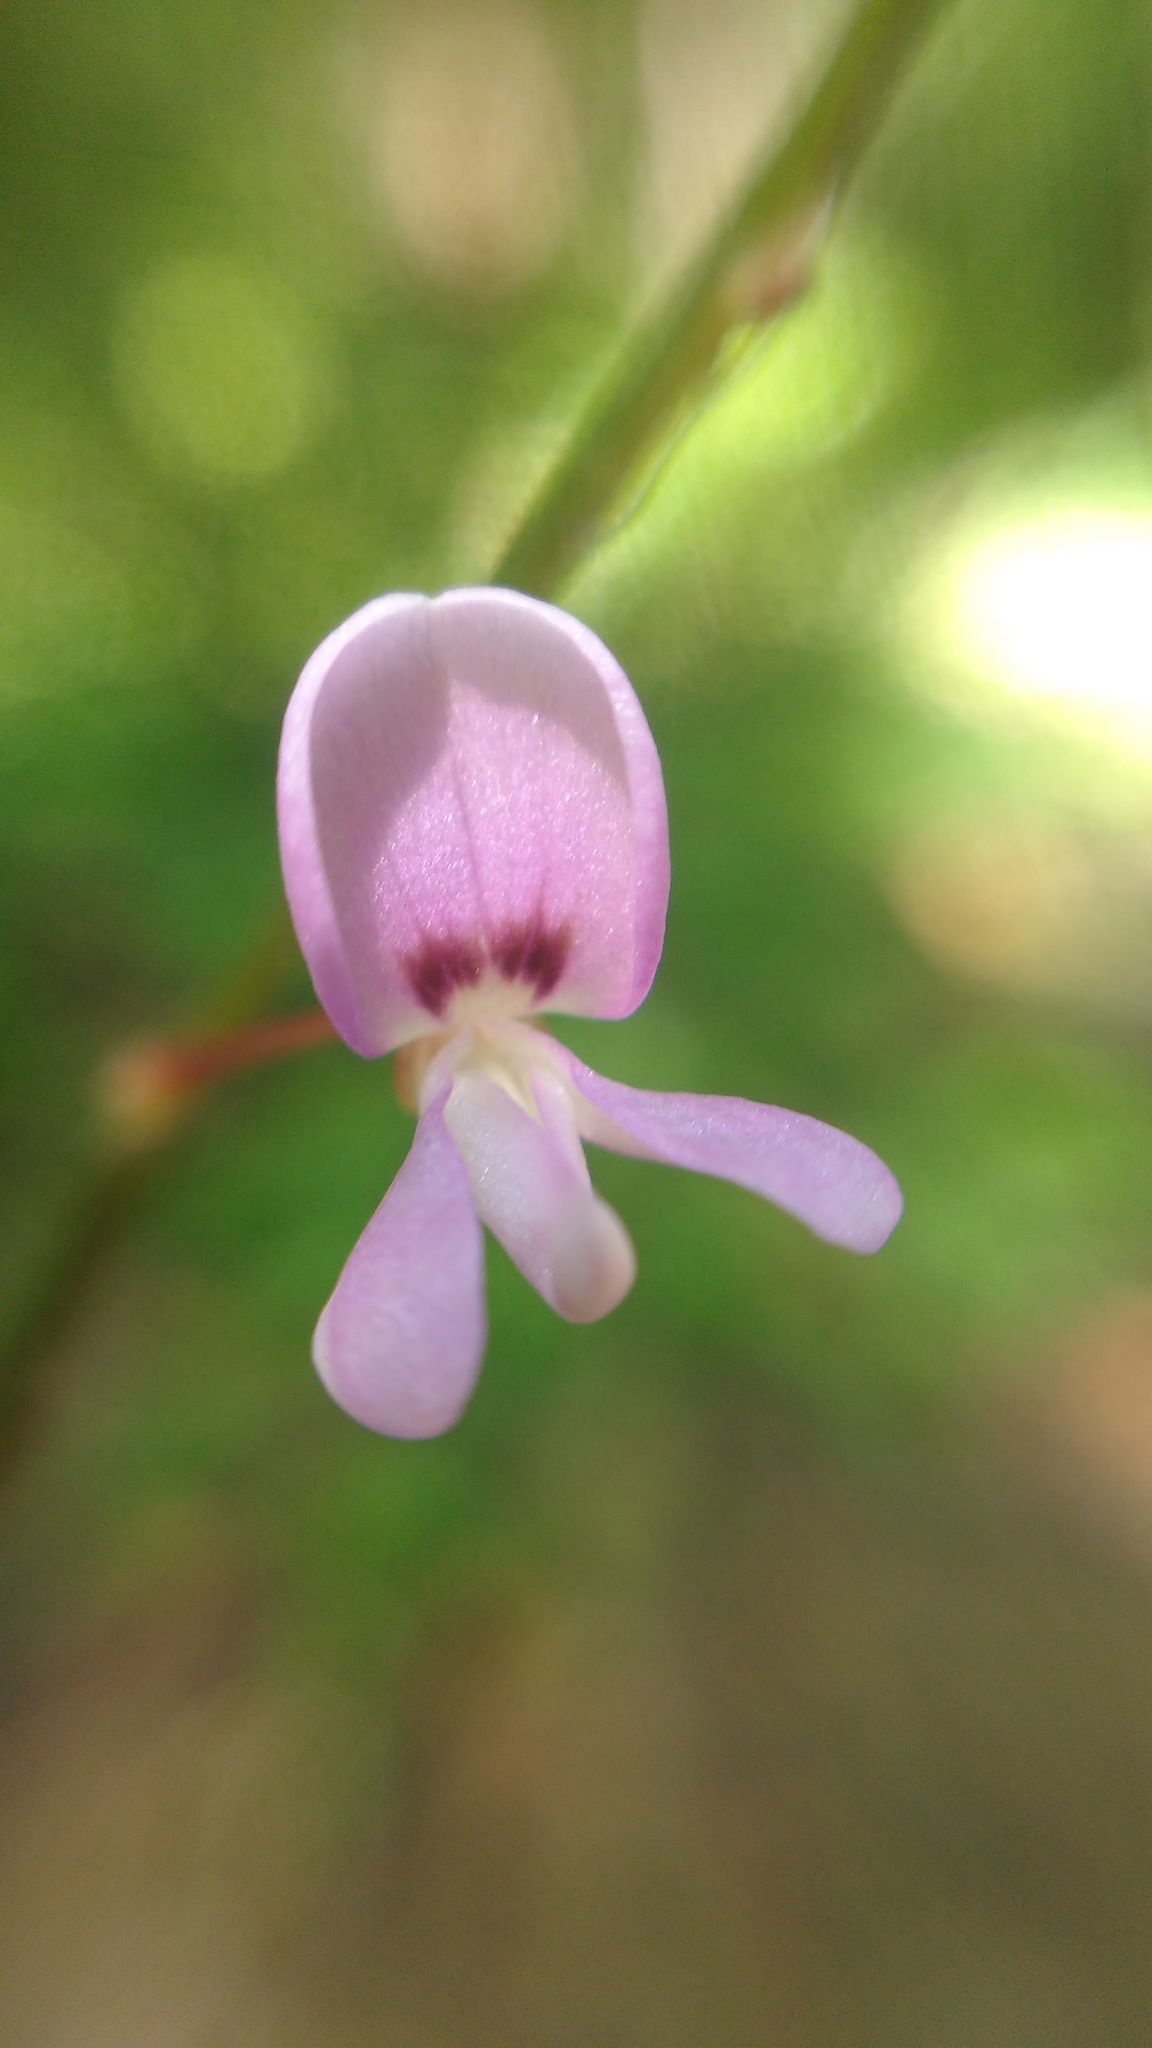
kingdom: Plantae
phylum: Tracheophyta
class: Magnoliopsida
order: Fabales
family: Fabaceae
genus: Hylodesmum
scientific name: Hylodesmum nudiflorum
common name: Bare-stemmed tick-trefoil
